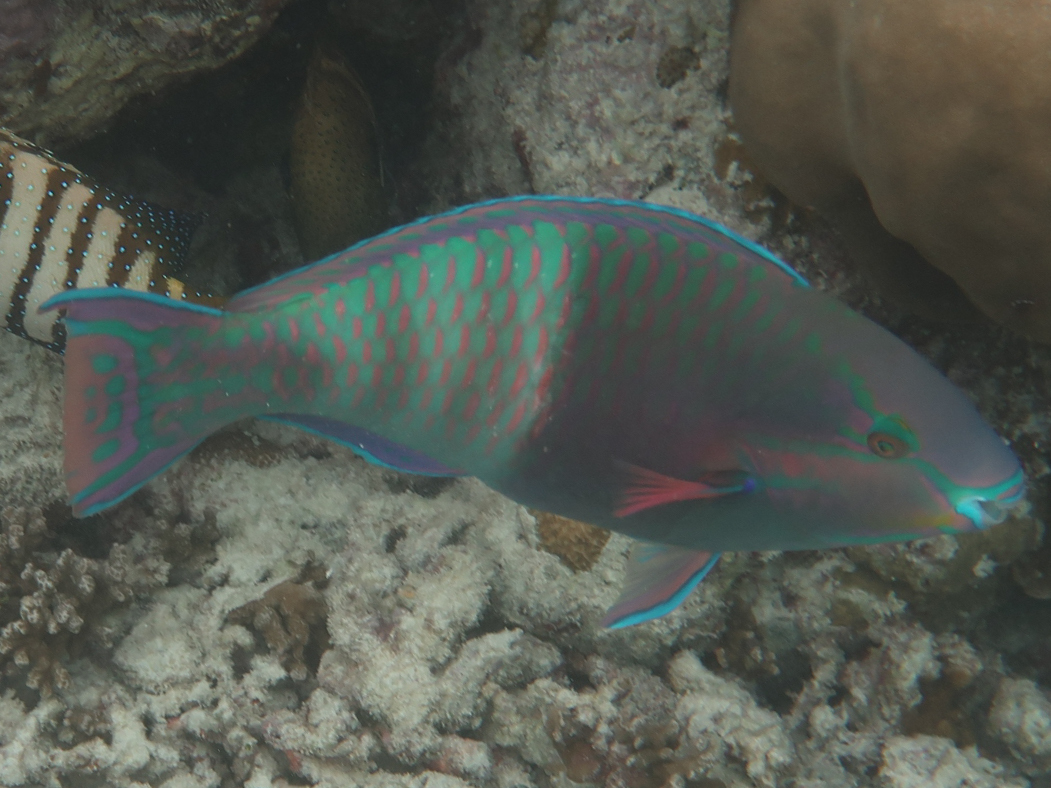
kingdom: Animalia
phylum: Chordata
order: Perciformes
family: Scaridae
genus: Scarus
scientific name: Scarus russelii
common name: Eclipse parrotfish
